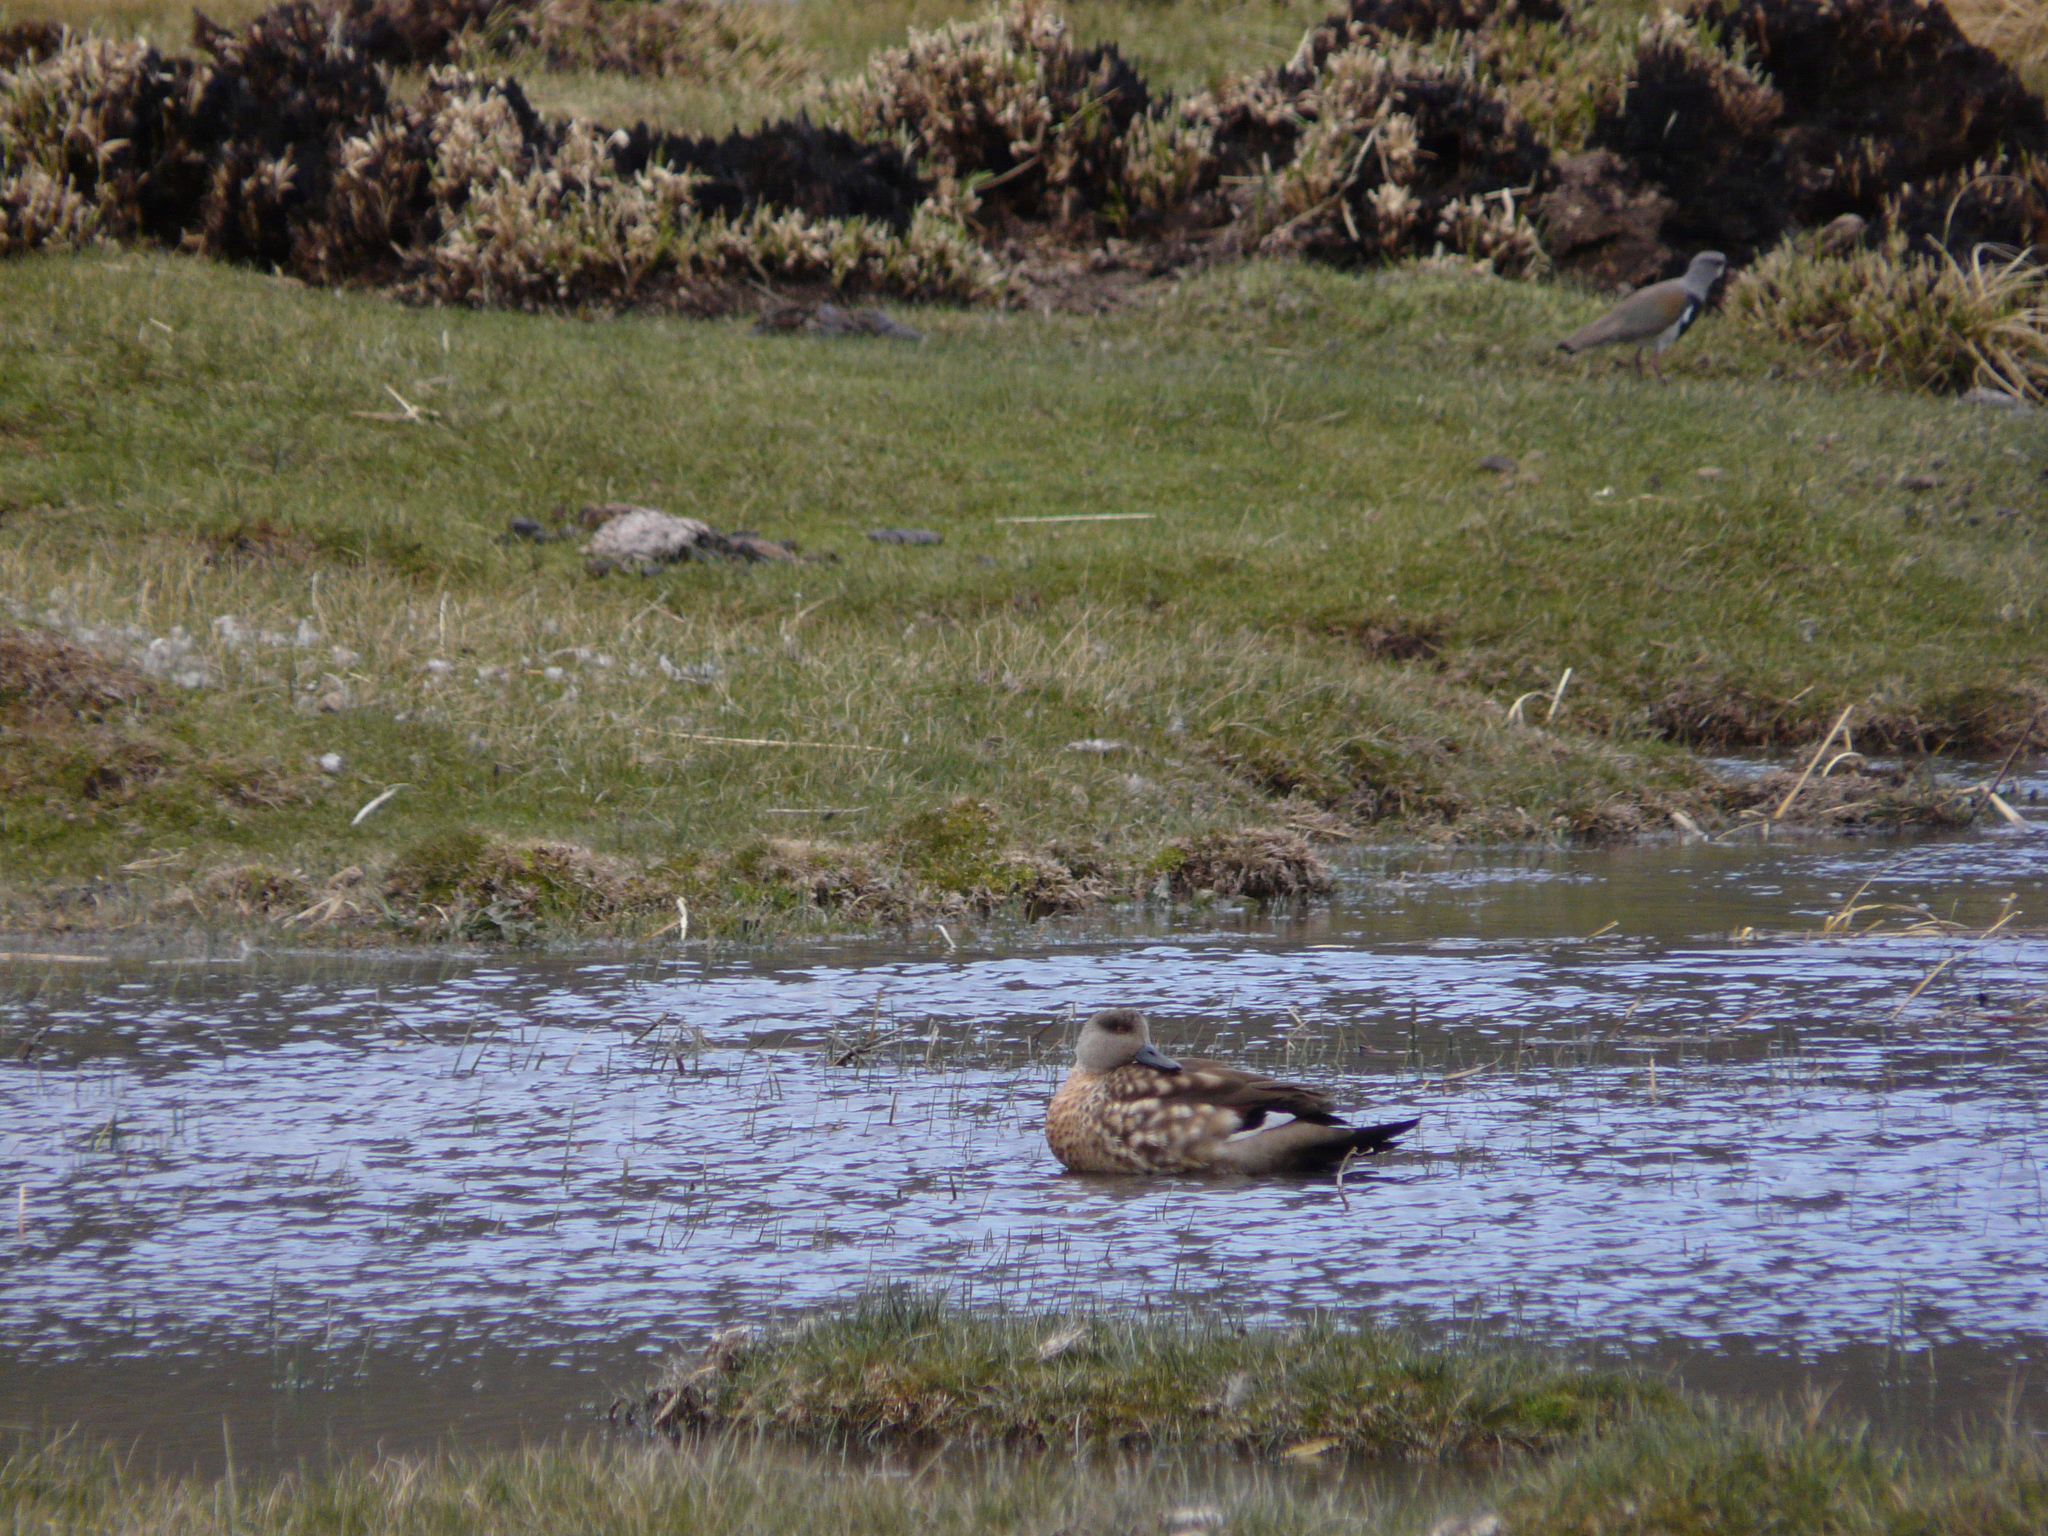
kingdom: Animalia
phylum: Chordata
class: Aves
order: Anseriformes
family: Anatidae
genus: Lophonetta
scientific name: Lophonetta specularioides
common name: Crested duck
